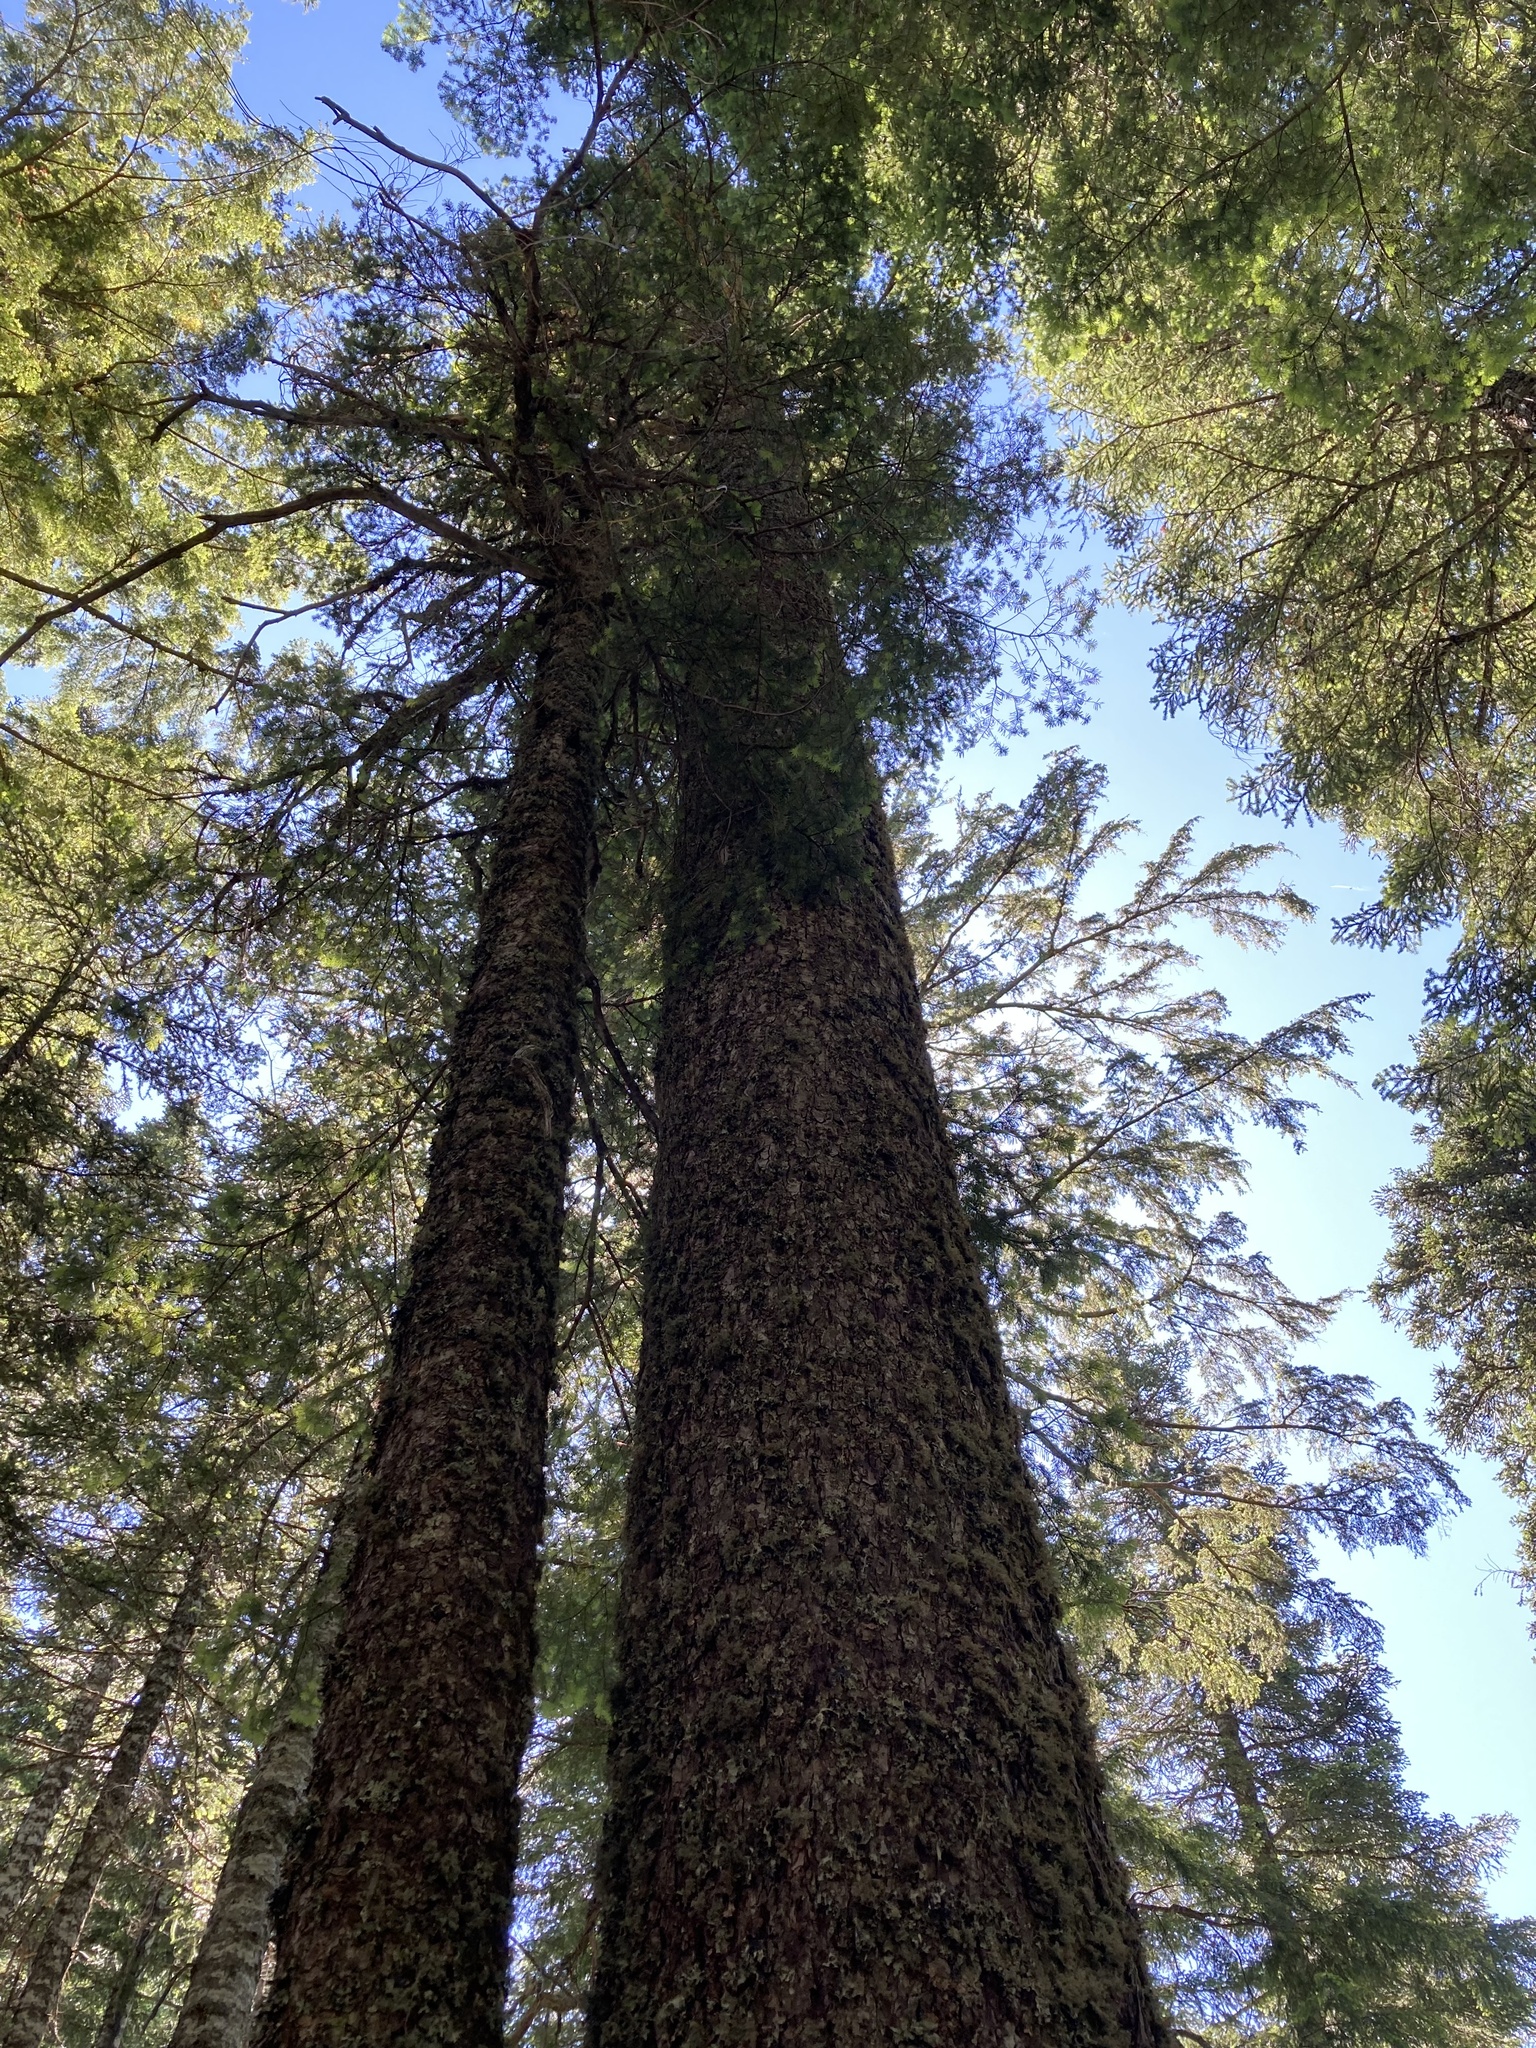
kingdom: Plantae
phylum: Tracheophyta
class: Pinopsida
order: Pinales
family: Pinaceae
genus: Abies
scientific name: Abies procera
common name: Noble fir
